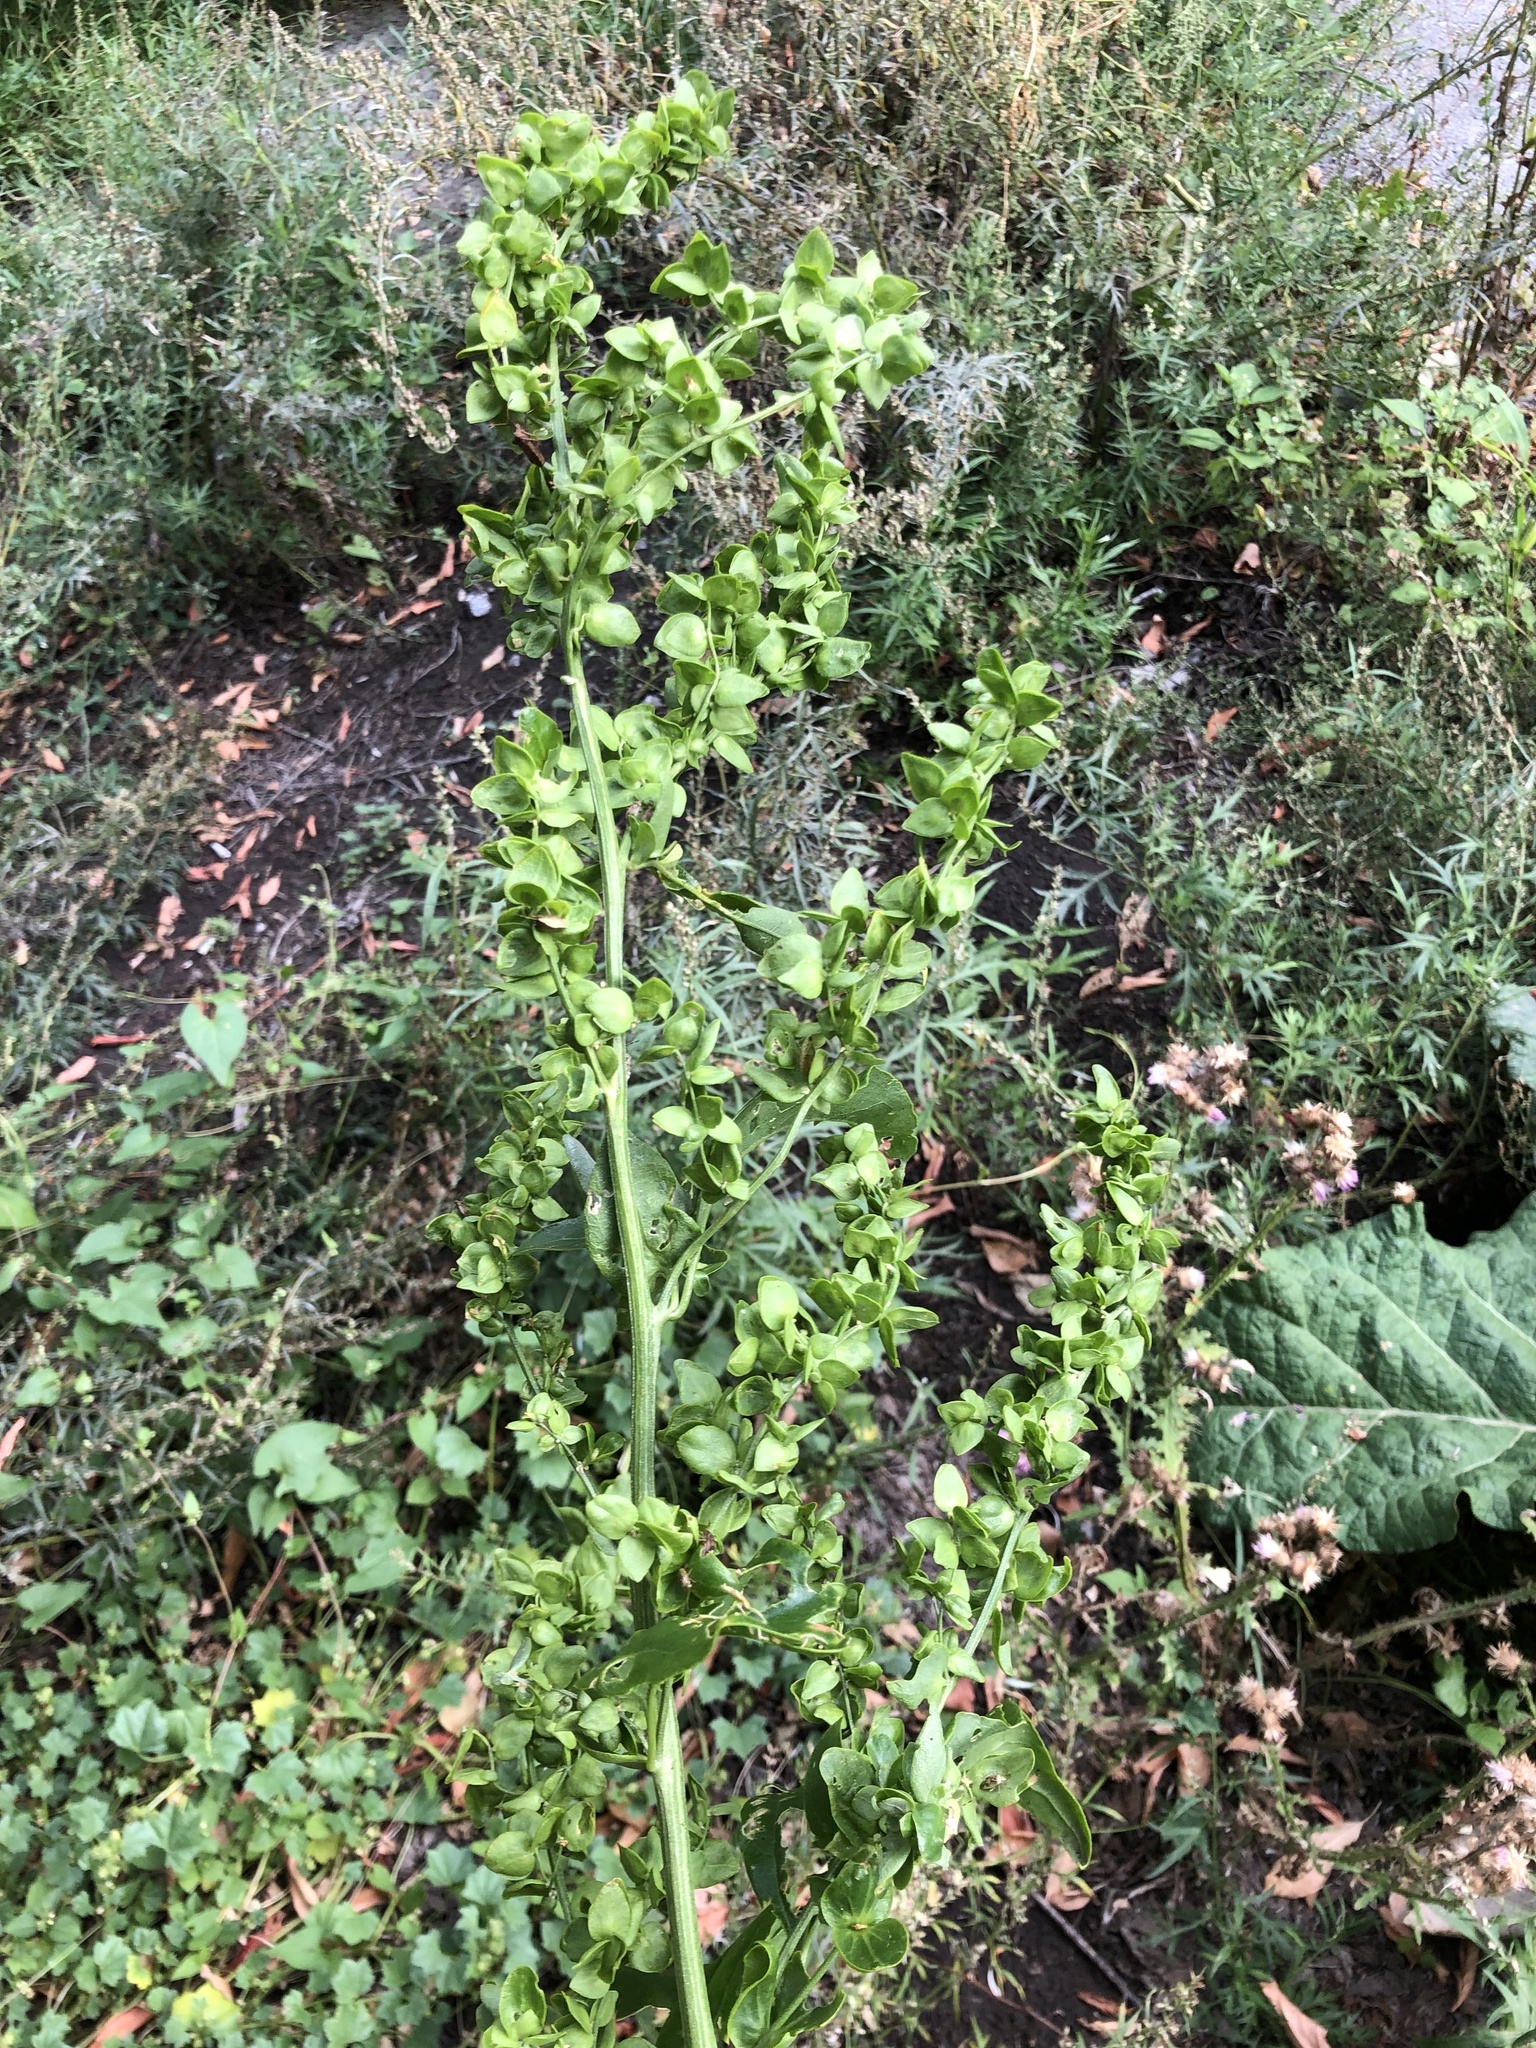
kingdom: Plantae
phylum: Tracheophyta
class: Magnoliopsida
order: Caryophyllales
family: Amaranthaceae
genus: Atriplex
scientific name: Atriplex sagittata
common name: Purple orache
